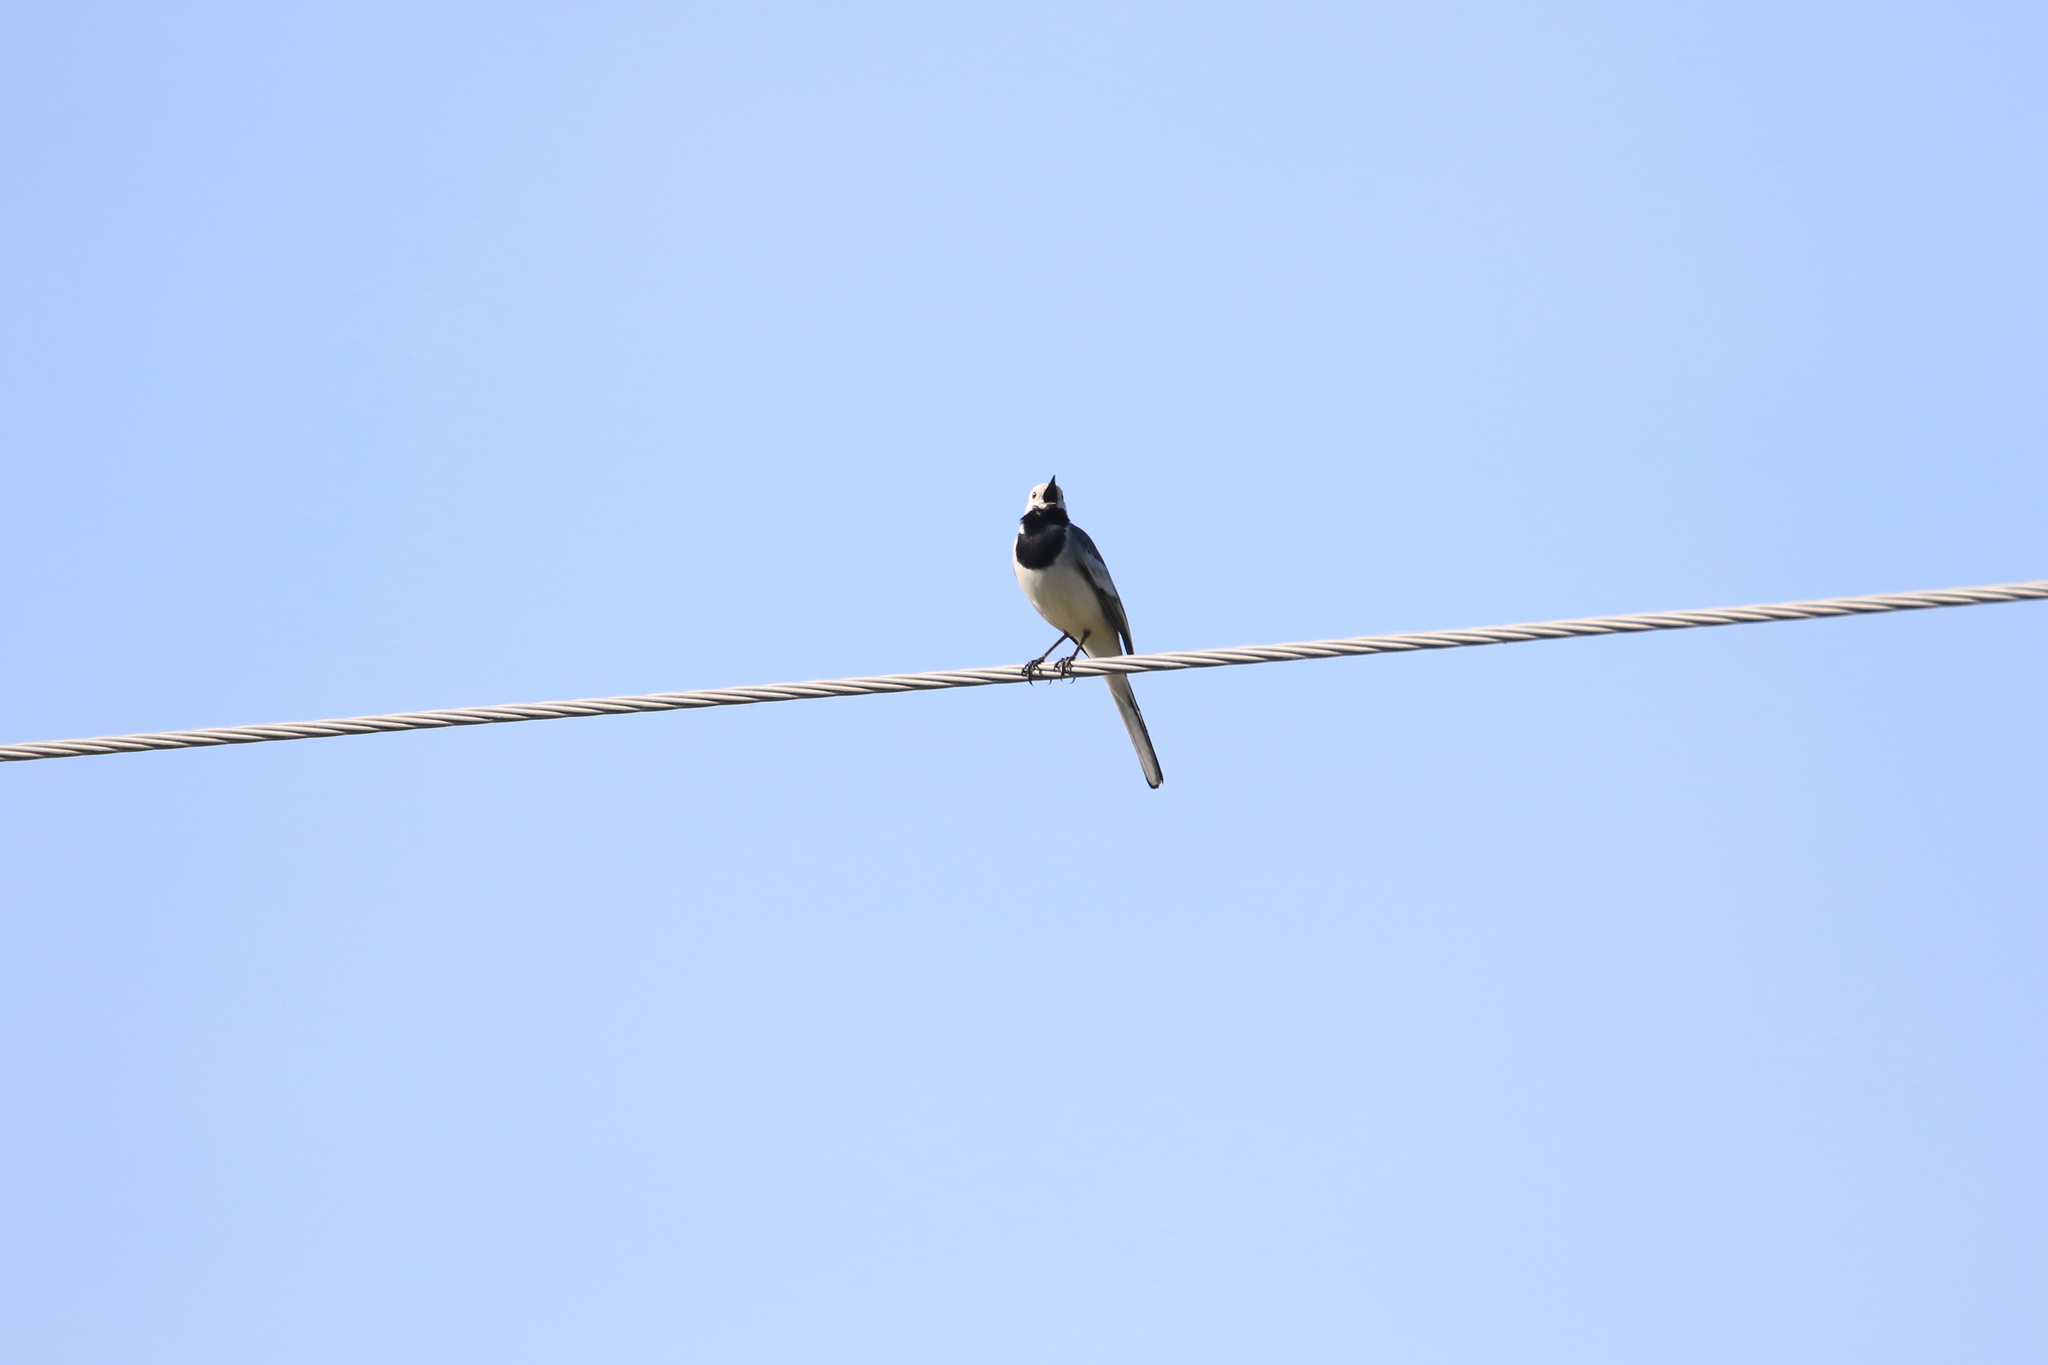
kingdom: Animalia
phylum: Chordata
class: Aves
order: Passeriformes
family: Motacillidae
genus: Motacilla
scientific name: Motacilla alba
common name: White wagtail
